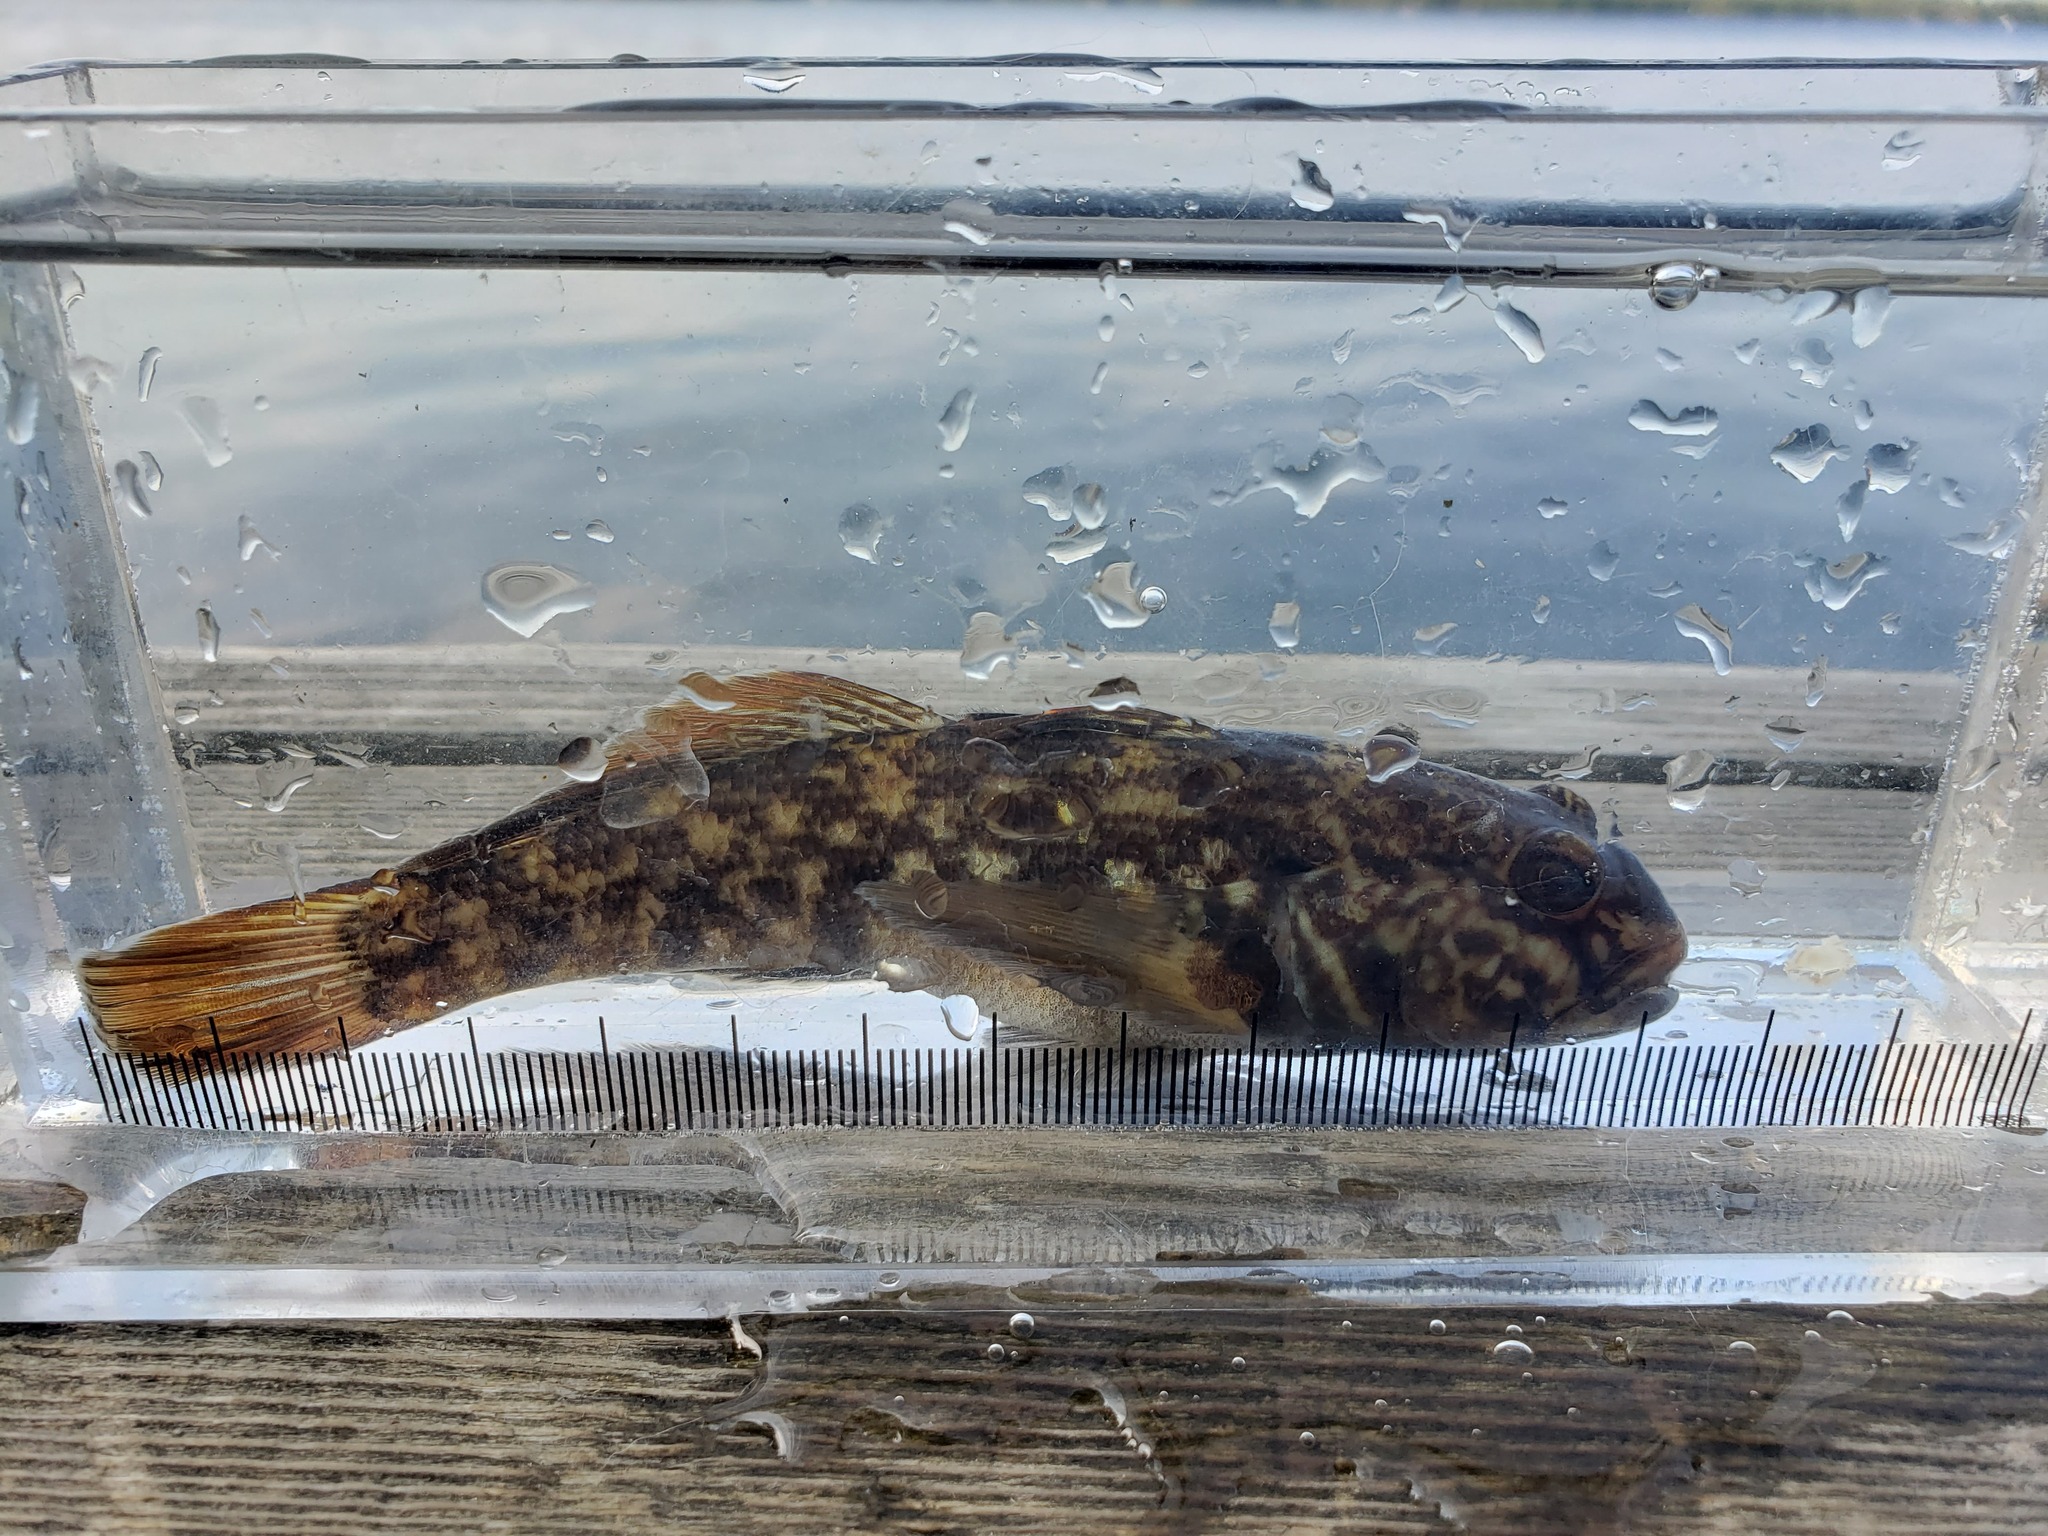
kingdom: Animalia
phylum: Chordata
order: Perciformes
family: Gobiidae
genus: Neogobius
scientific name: Neogobius melanostomus
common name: Round goby
